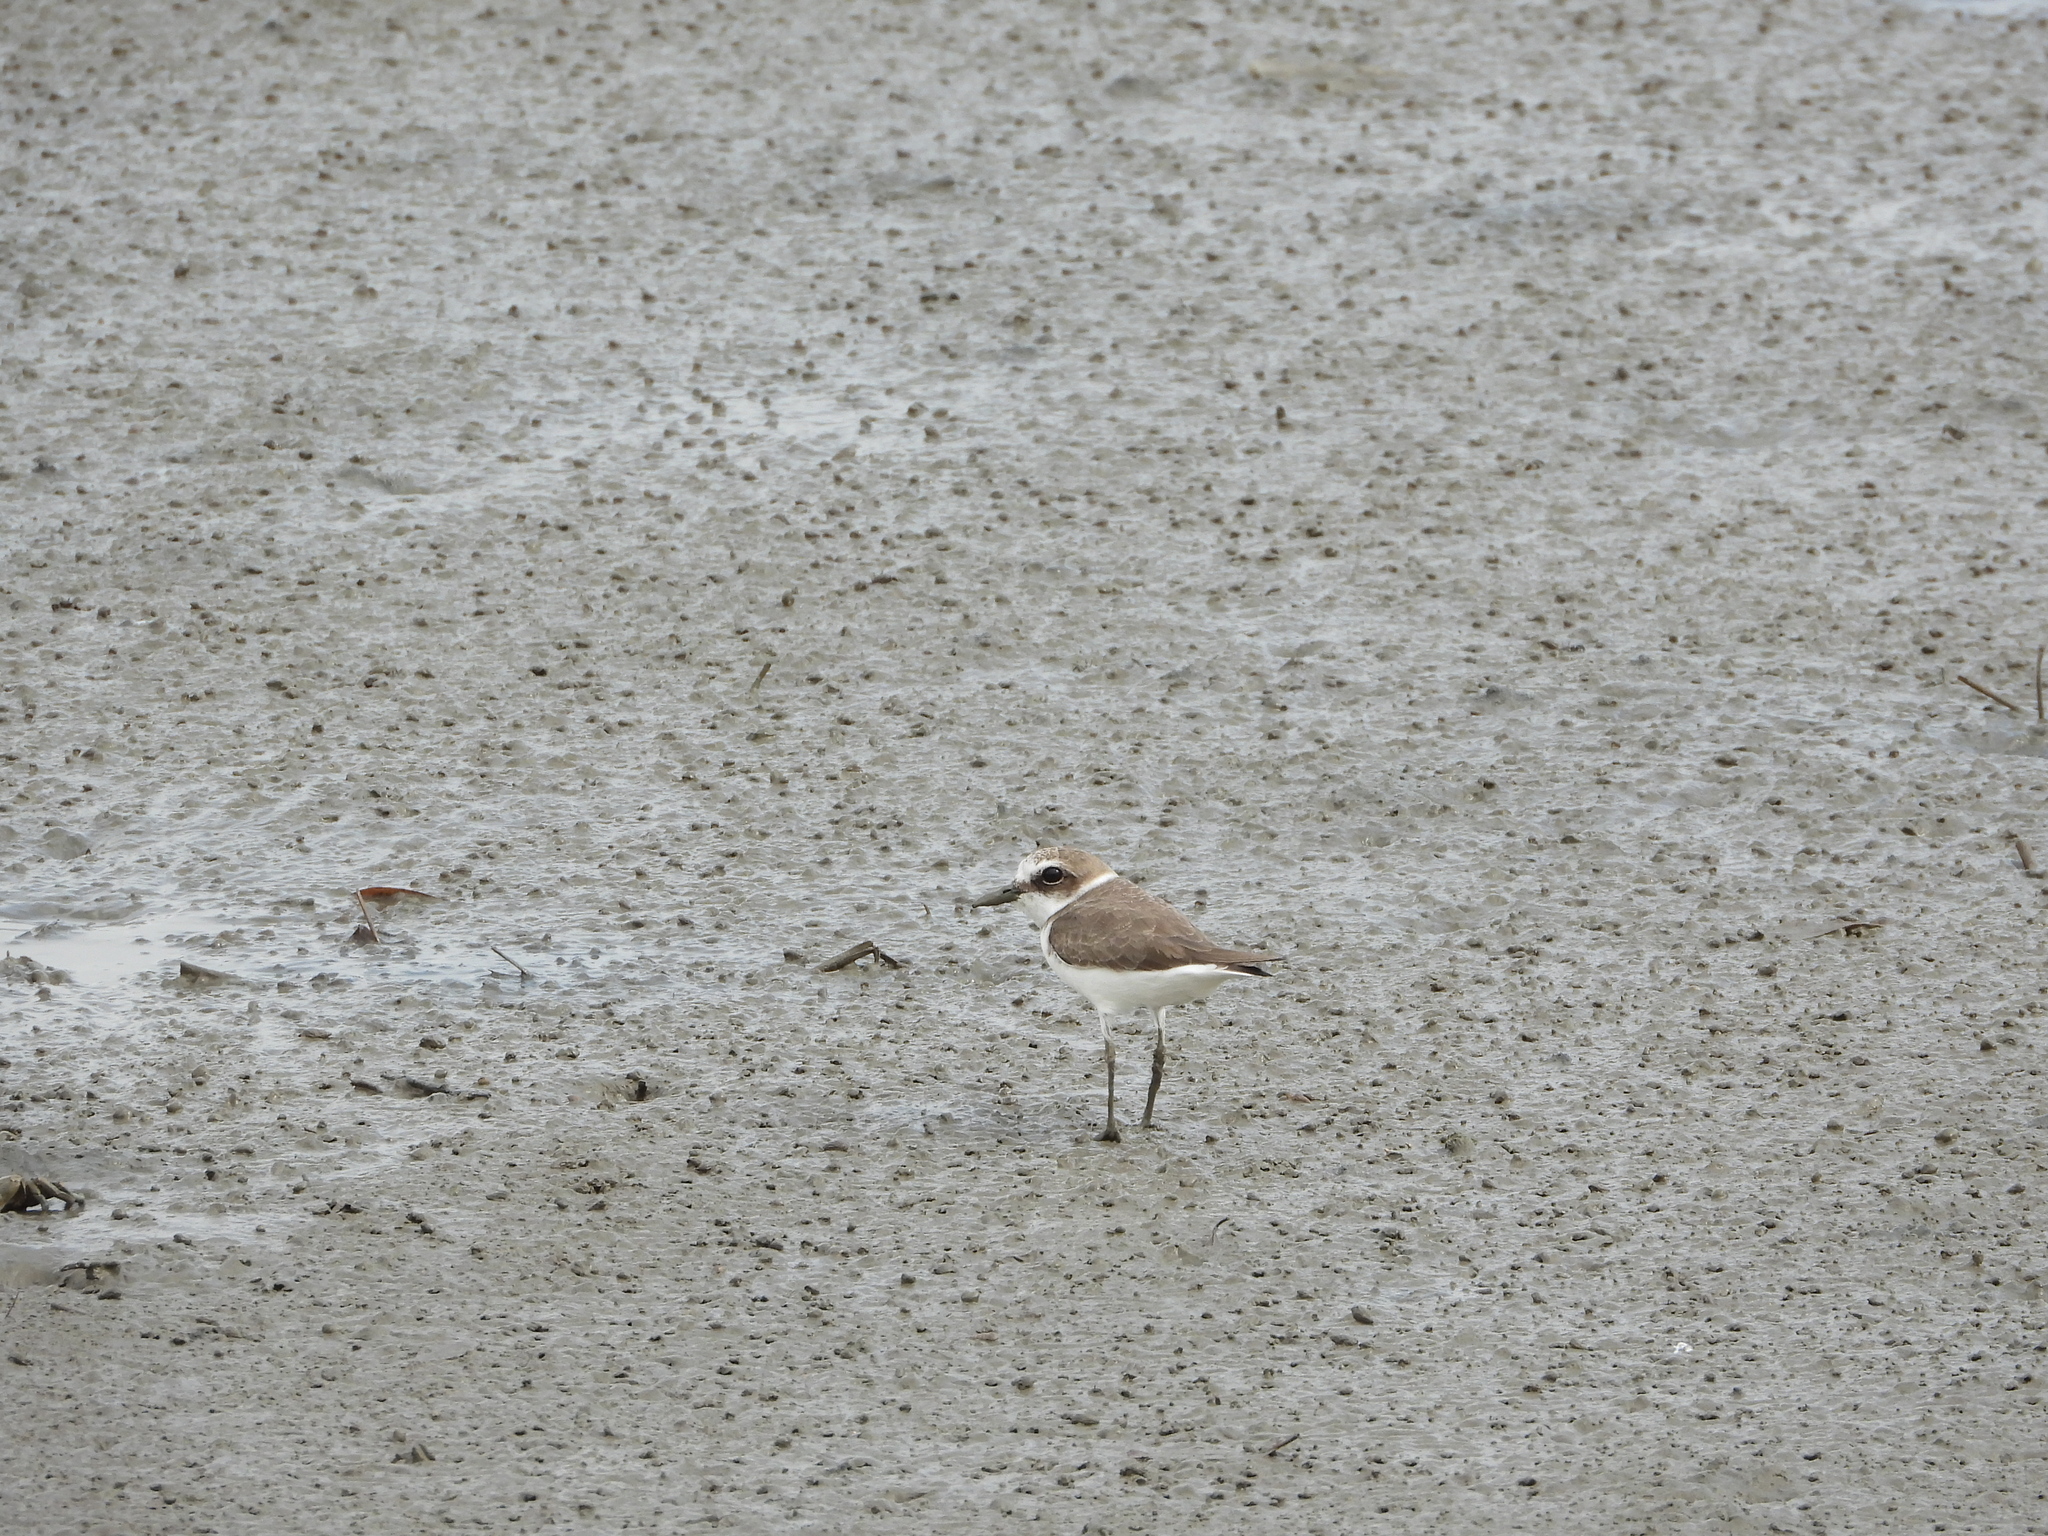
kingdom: Animalia
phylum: Chordata
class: Aves
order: Charadriiformes
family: Charadriidae
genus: Charadrius
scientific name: Charadrius alexandrinus
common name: Kentish plover
